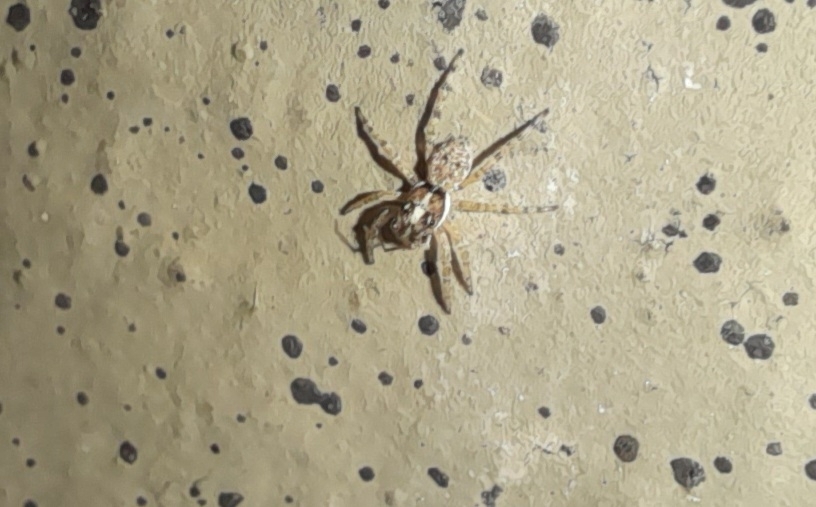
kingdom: Animalia
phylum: Arthropoda
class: Arachnida
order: Araneae
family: Salticidae
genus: Menemerus
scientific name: Menemerus semilimbatus
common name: Jumping spider
